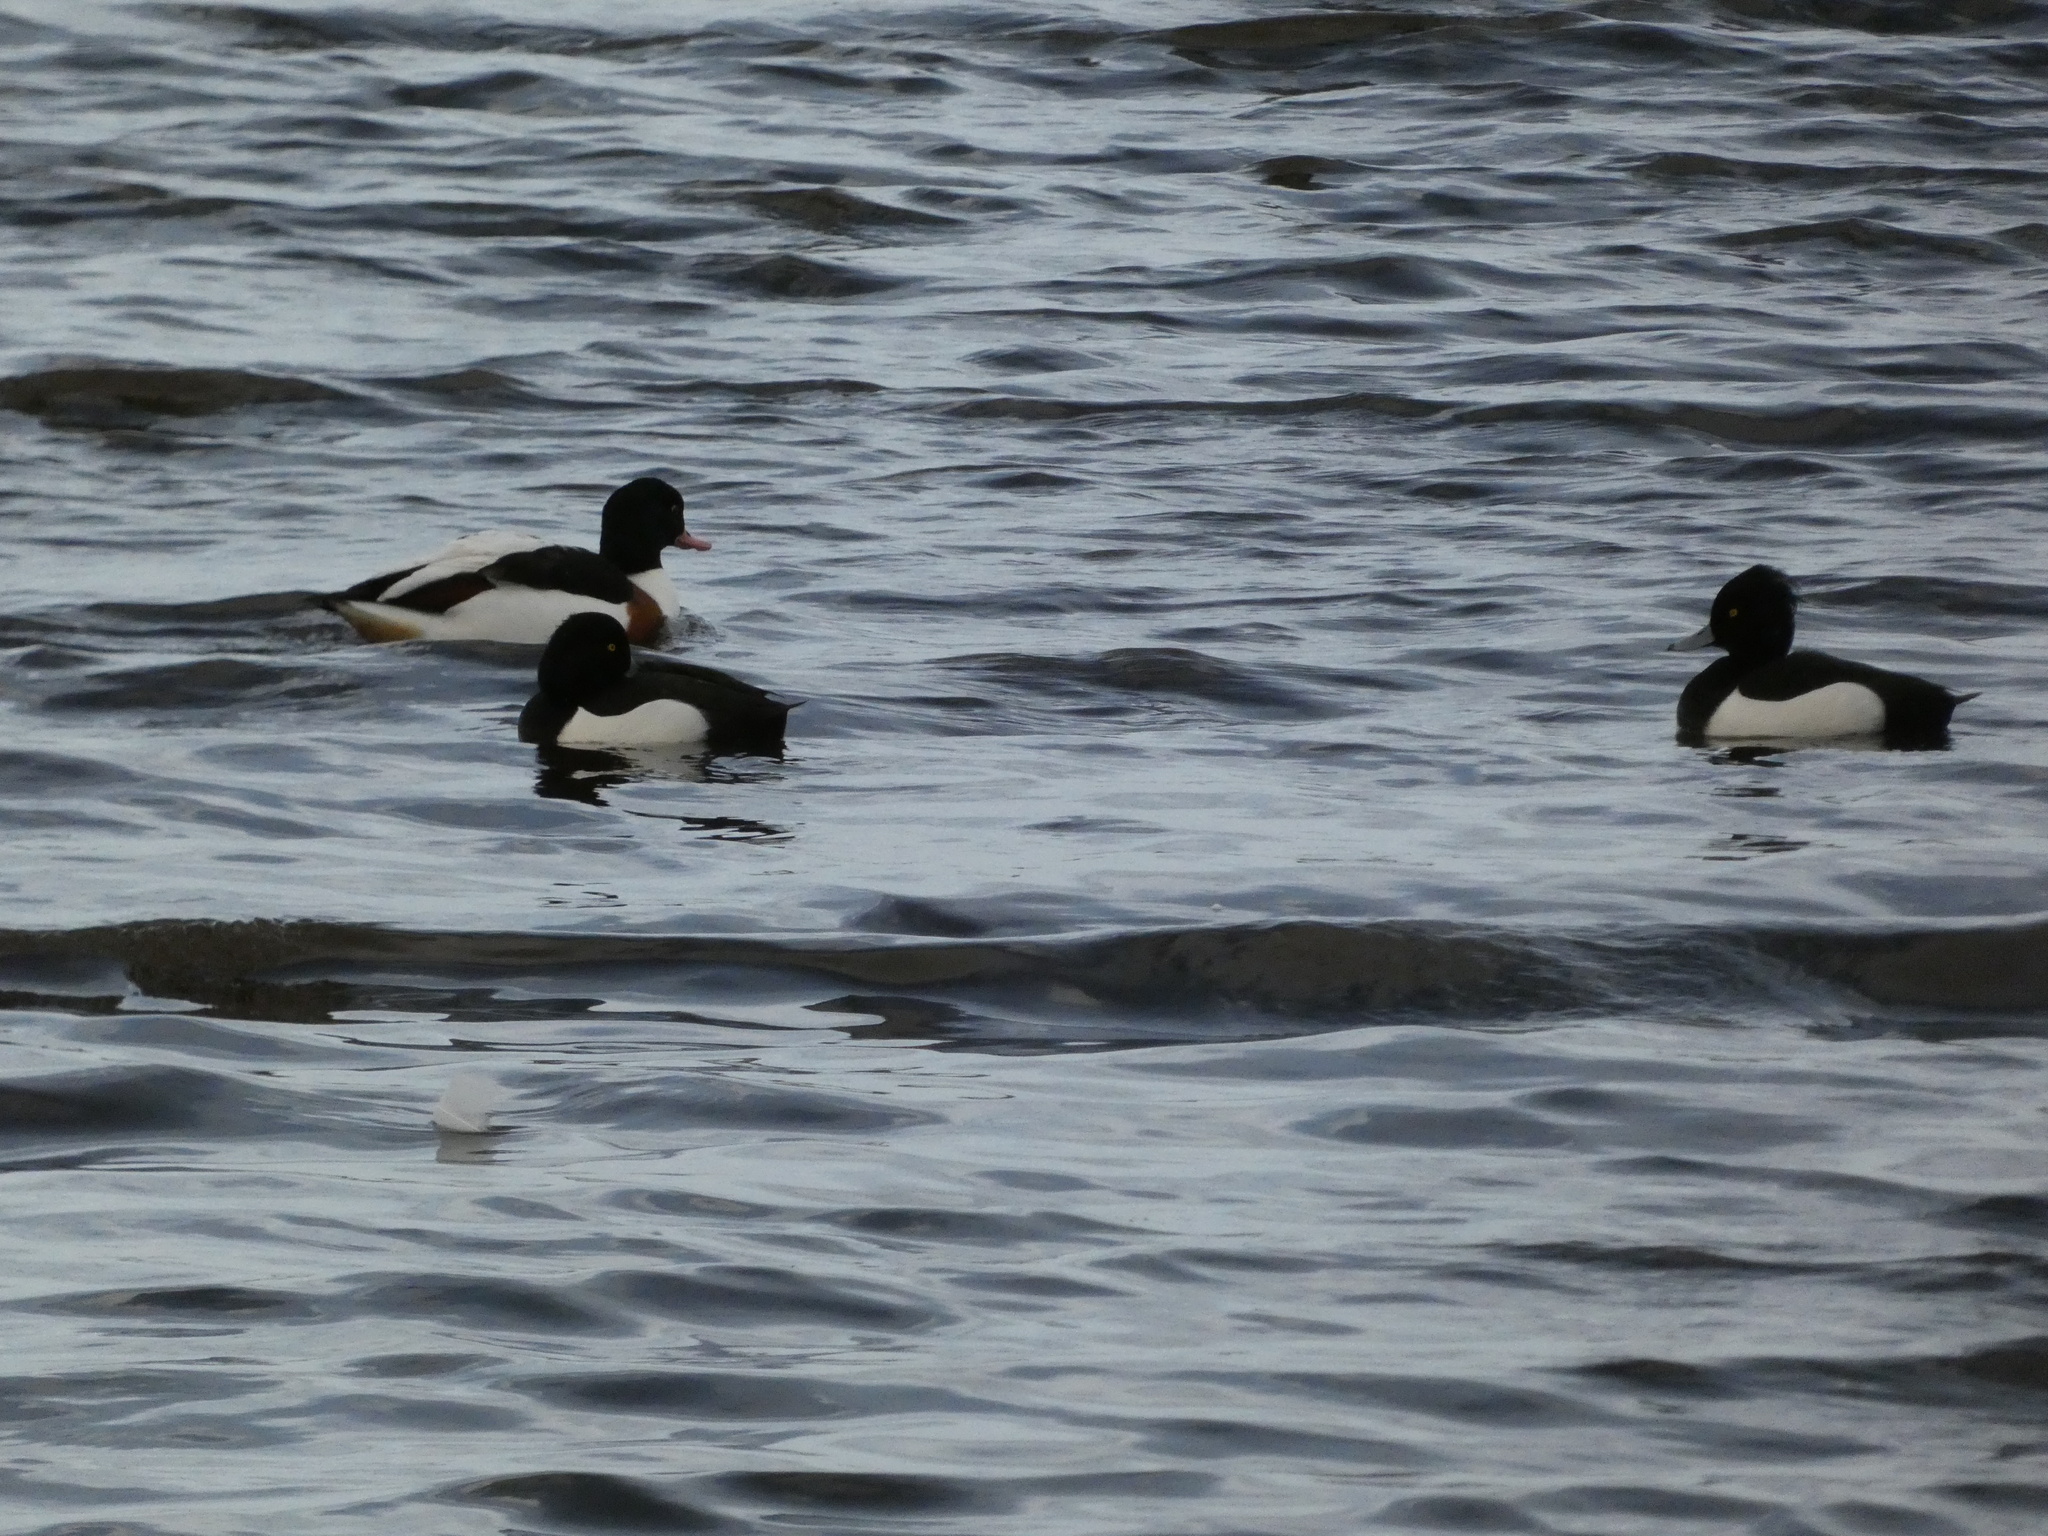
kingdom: Animalia
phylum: Chordata
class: Aves
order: Anseriformes
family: Anatidae
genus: Aythya
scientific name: Aythya fuligula
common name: Tufted duck
